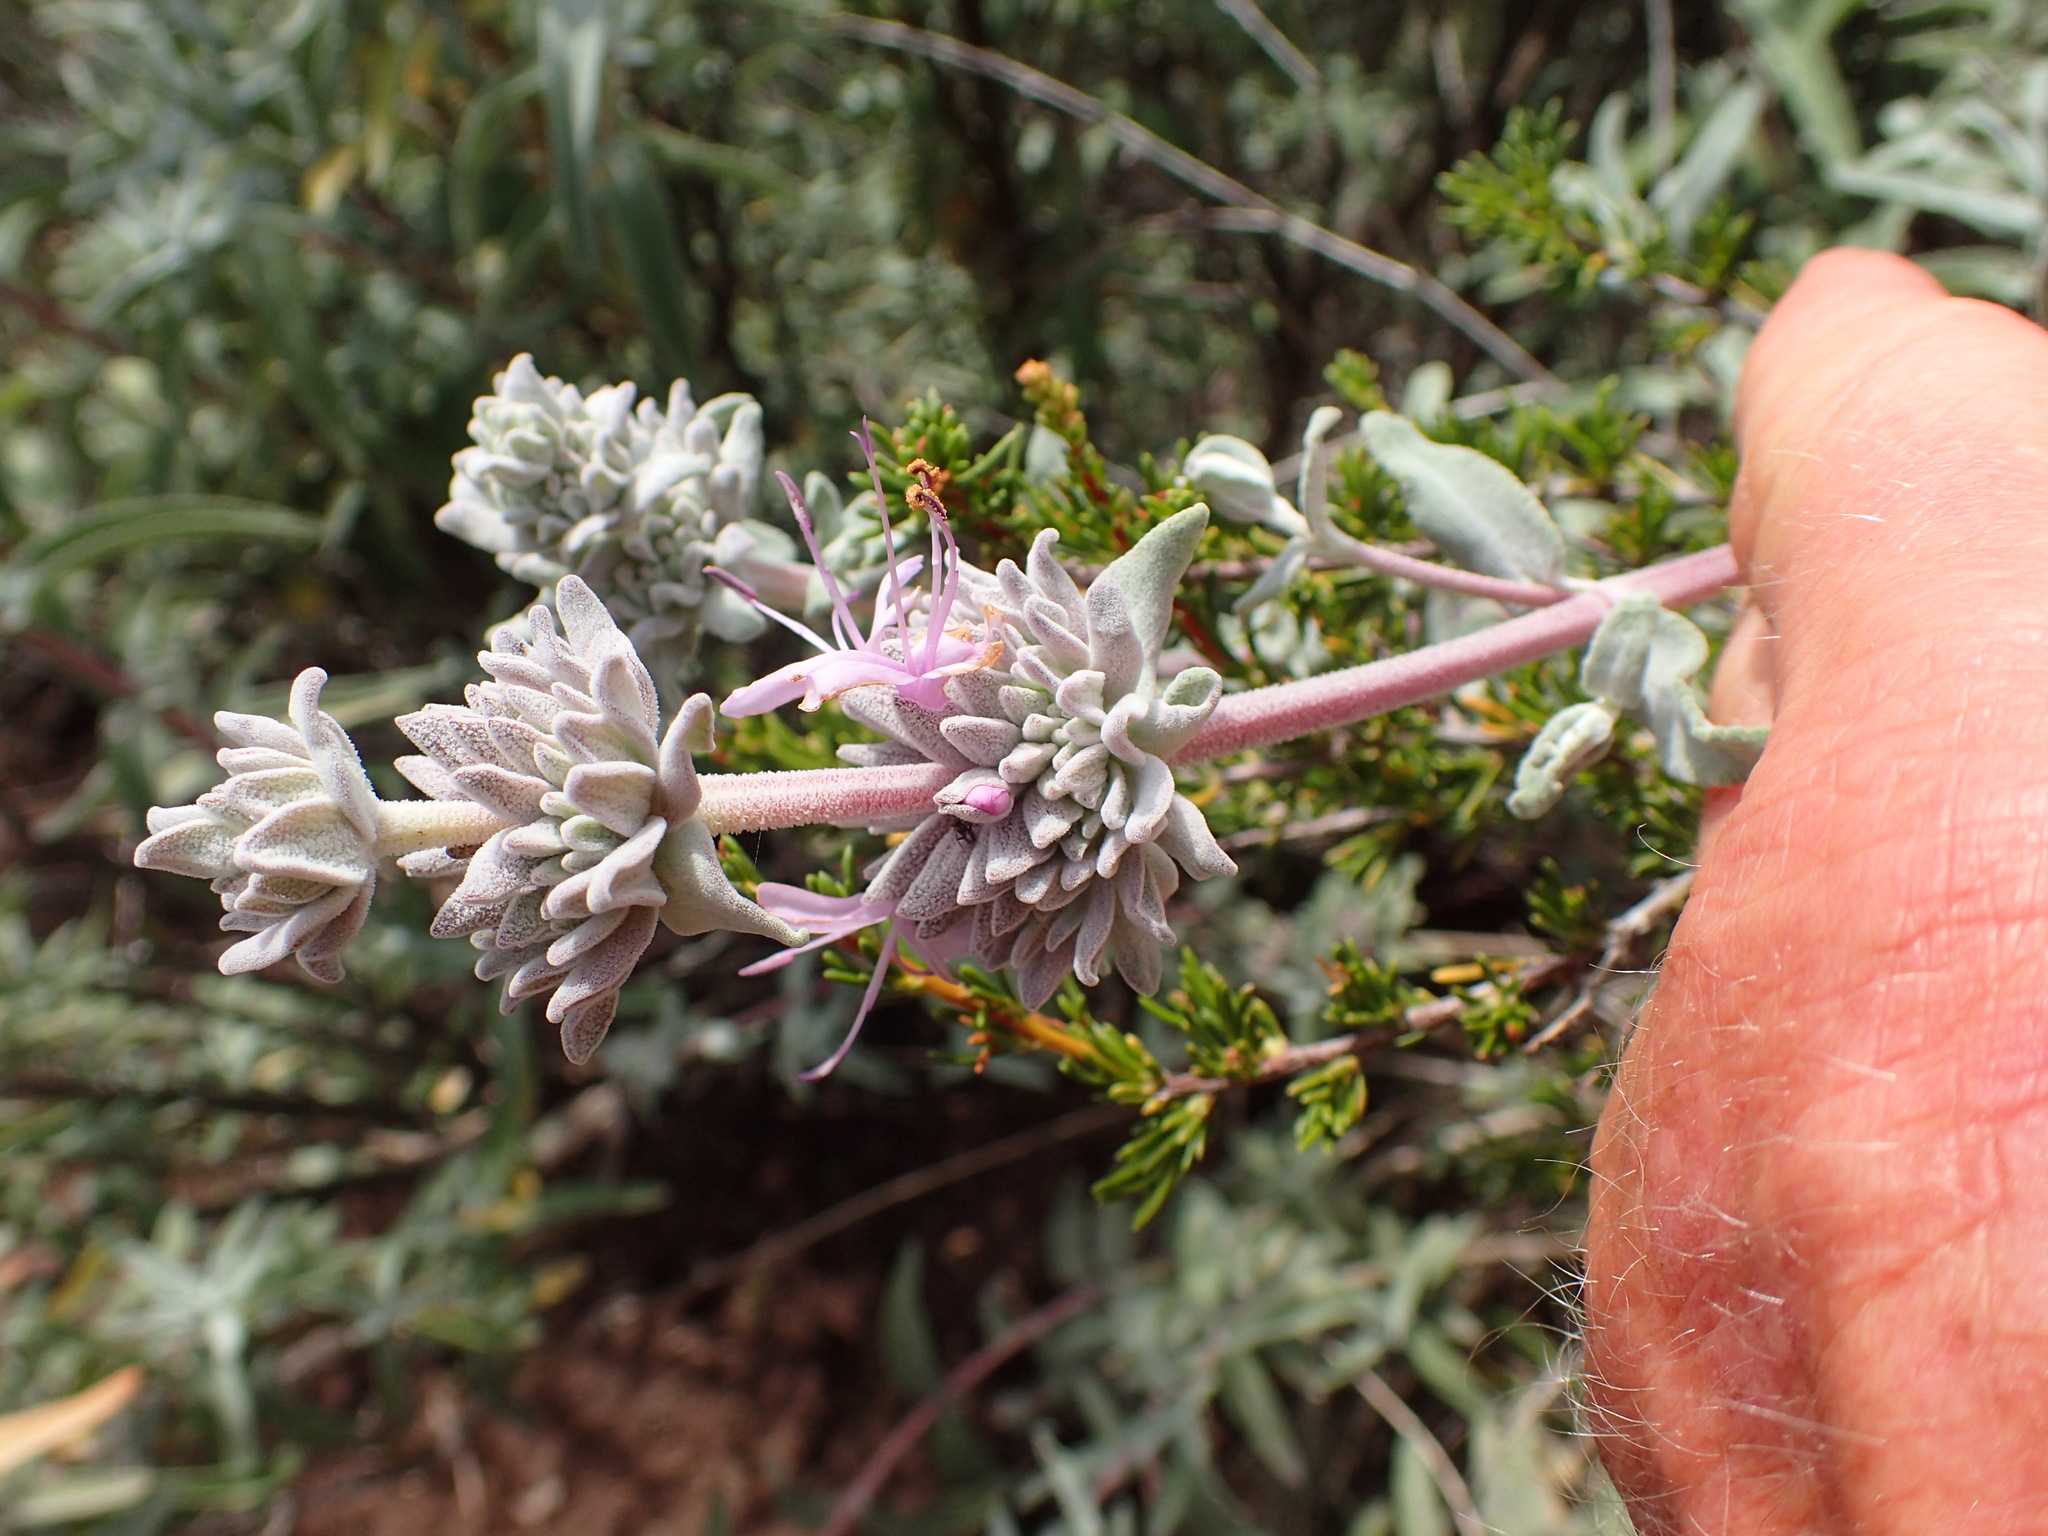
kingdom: Plantae
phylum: Tracheophyta
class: Magnoliopsida
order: Lamiales
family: Lamiaceae
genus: Salvia
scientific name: Salvia leucophylla
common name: Purple sage
